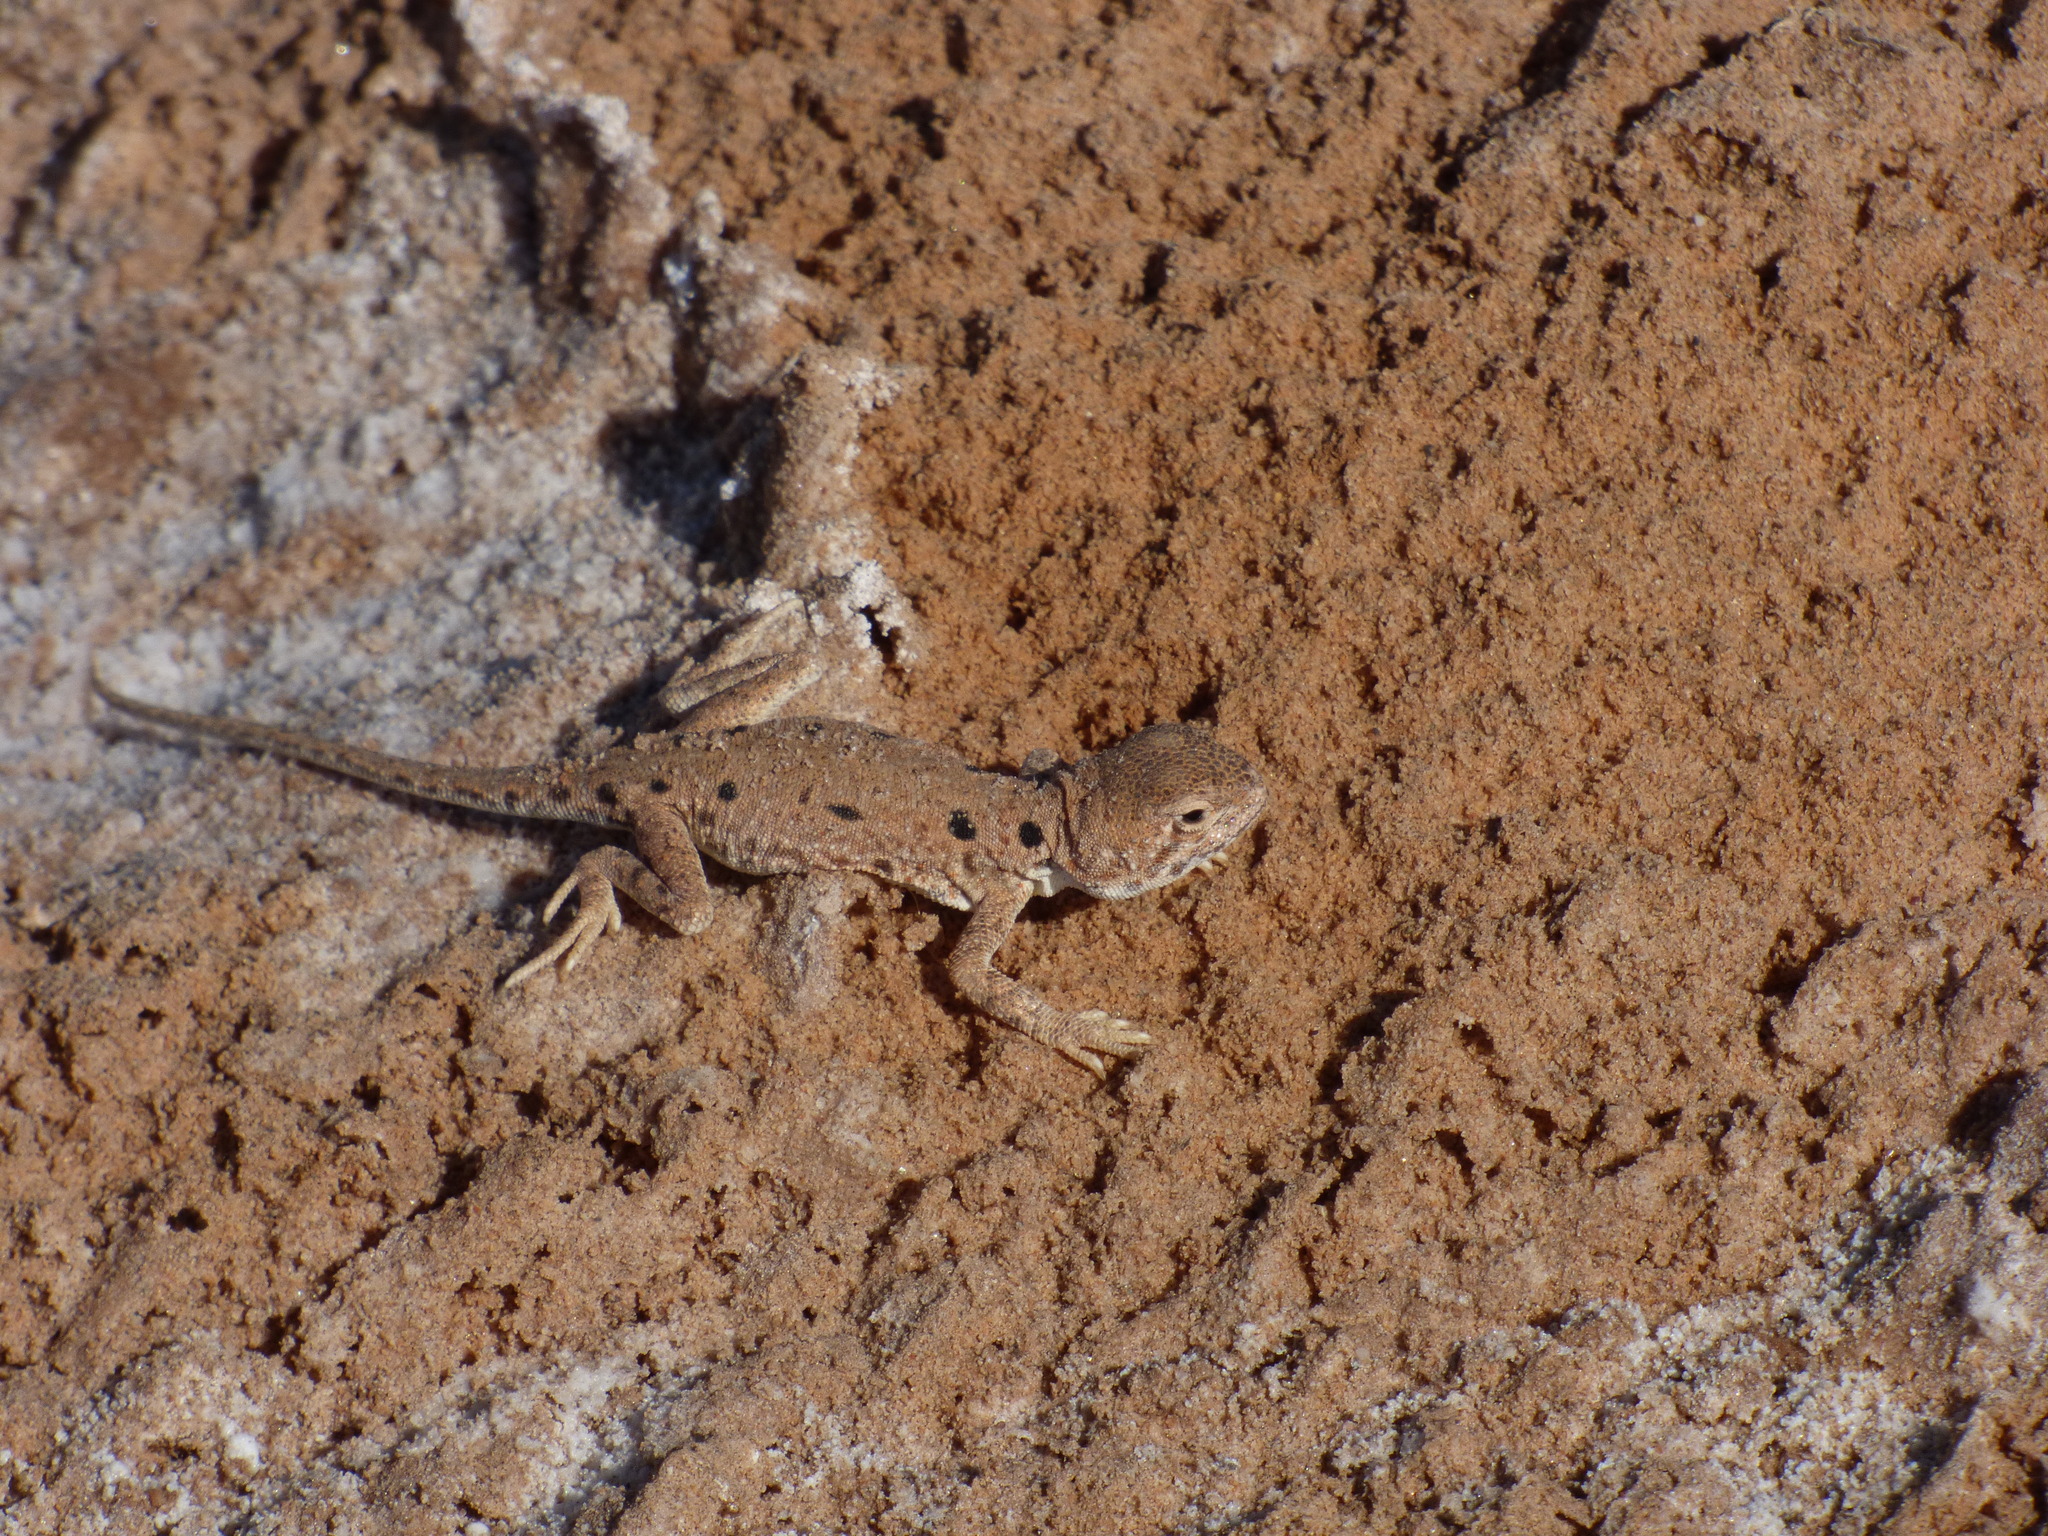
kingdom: Animalia
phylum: Chordata
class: Squamata
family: Agamidae
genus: Ctenophorus
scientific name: Ctenophorus maculosus
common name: Lake eyre dragon
